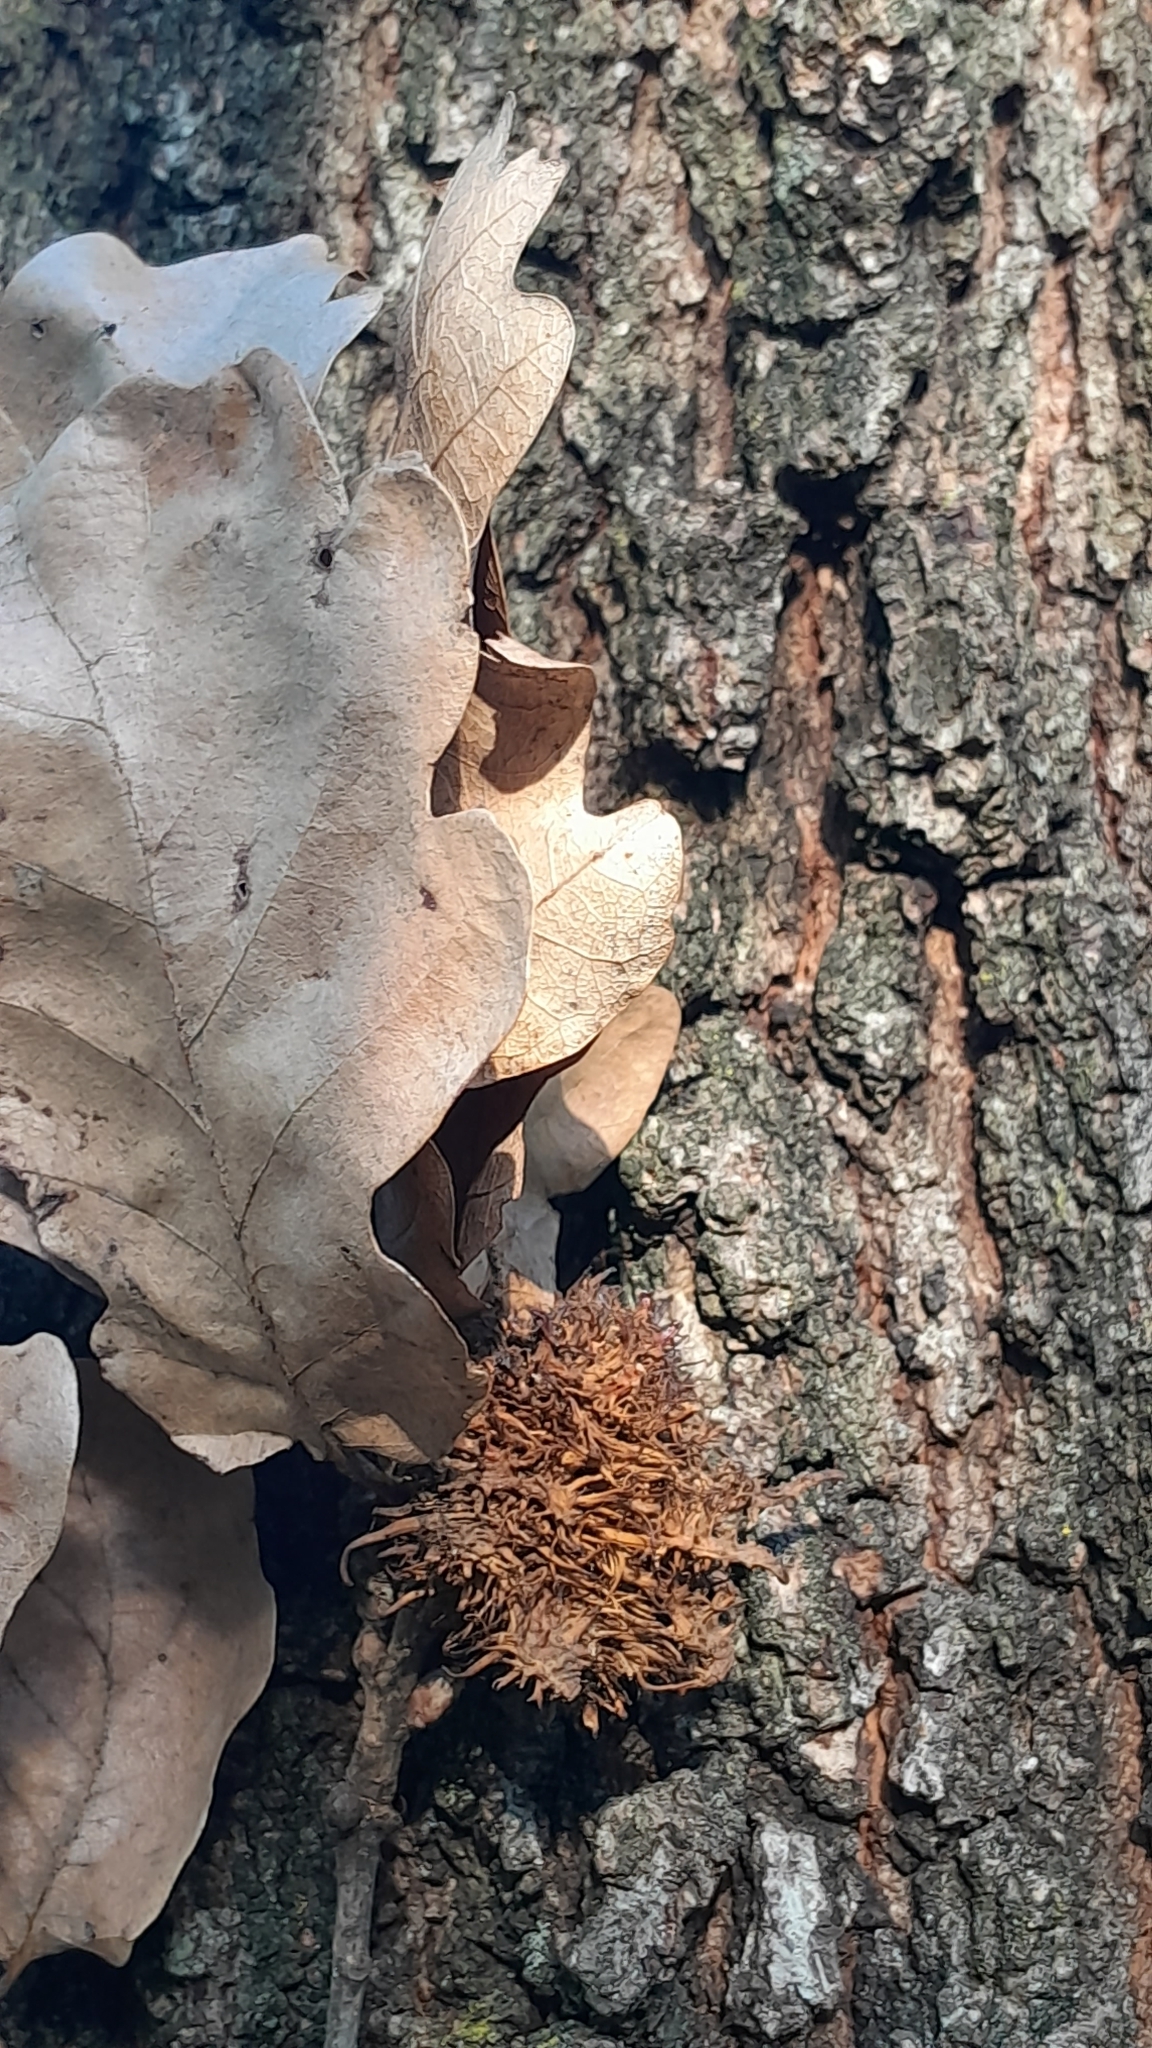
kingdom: Plantae
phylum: Tracheophyta
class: Magnoliopsida
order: Fagales
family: Fagaceae
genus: Quercus
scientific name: Quercus cerris
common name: Turkey oak
